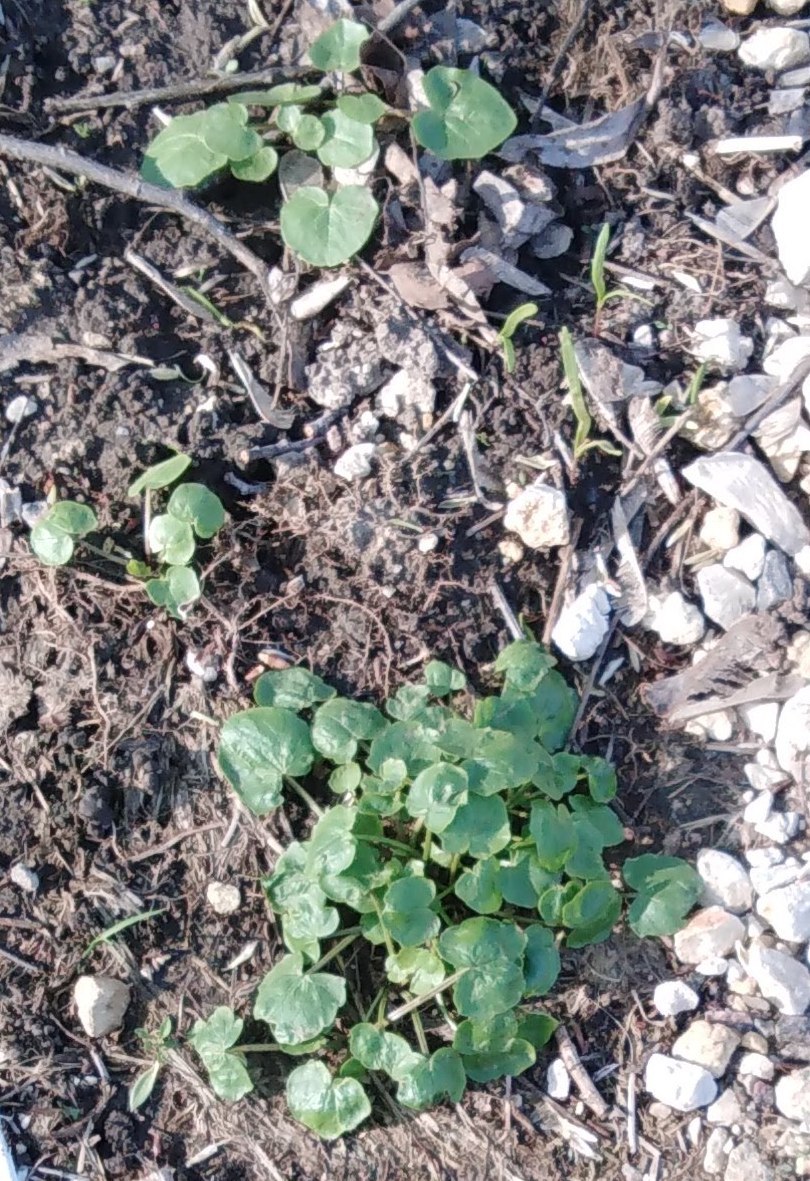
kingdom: Plantae
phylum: Tracheophyta
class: Magnoliopsida
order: Ranunculales
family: Ranunculaceae
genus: Ficaria
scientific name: Ficaria verna
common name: Lesser celandine
